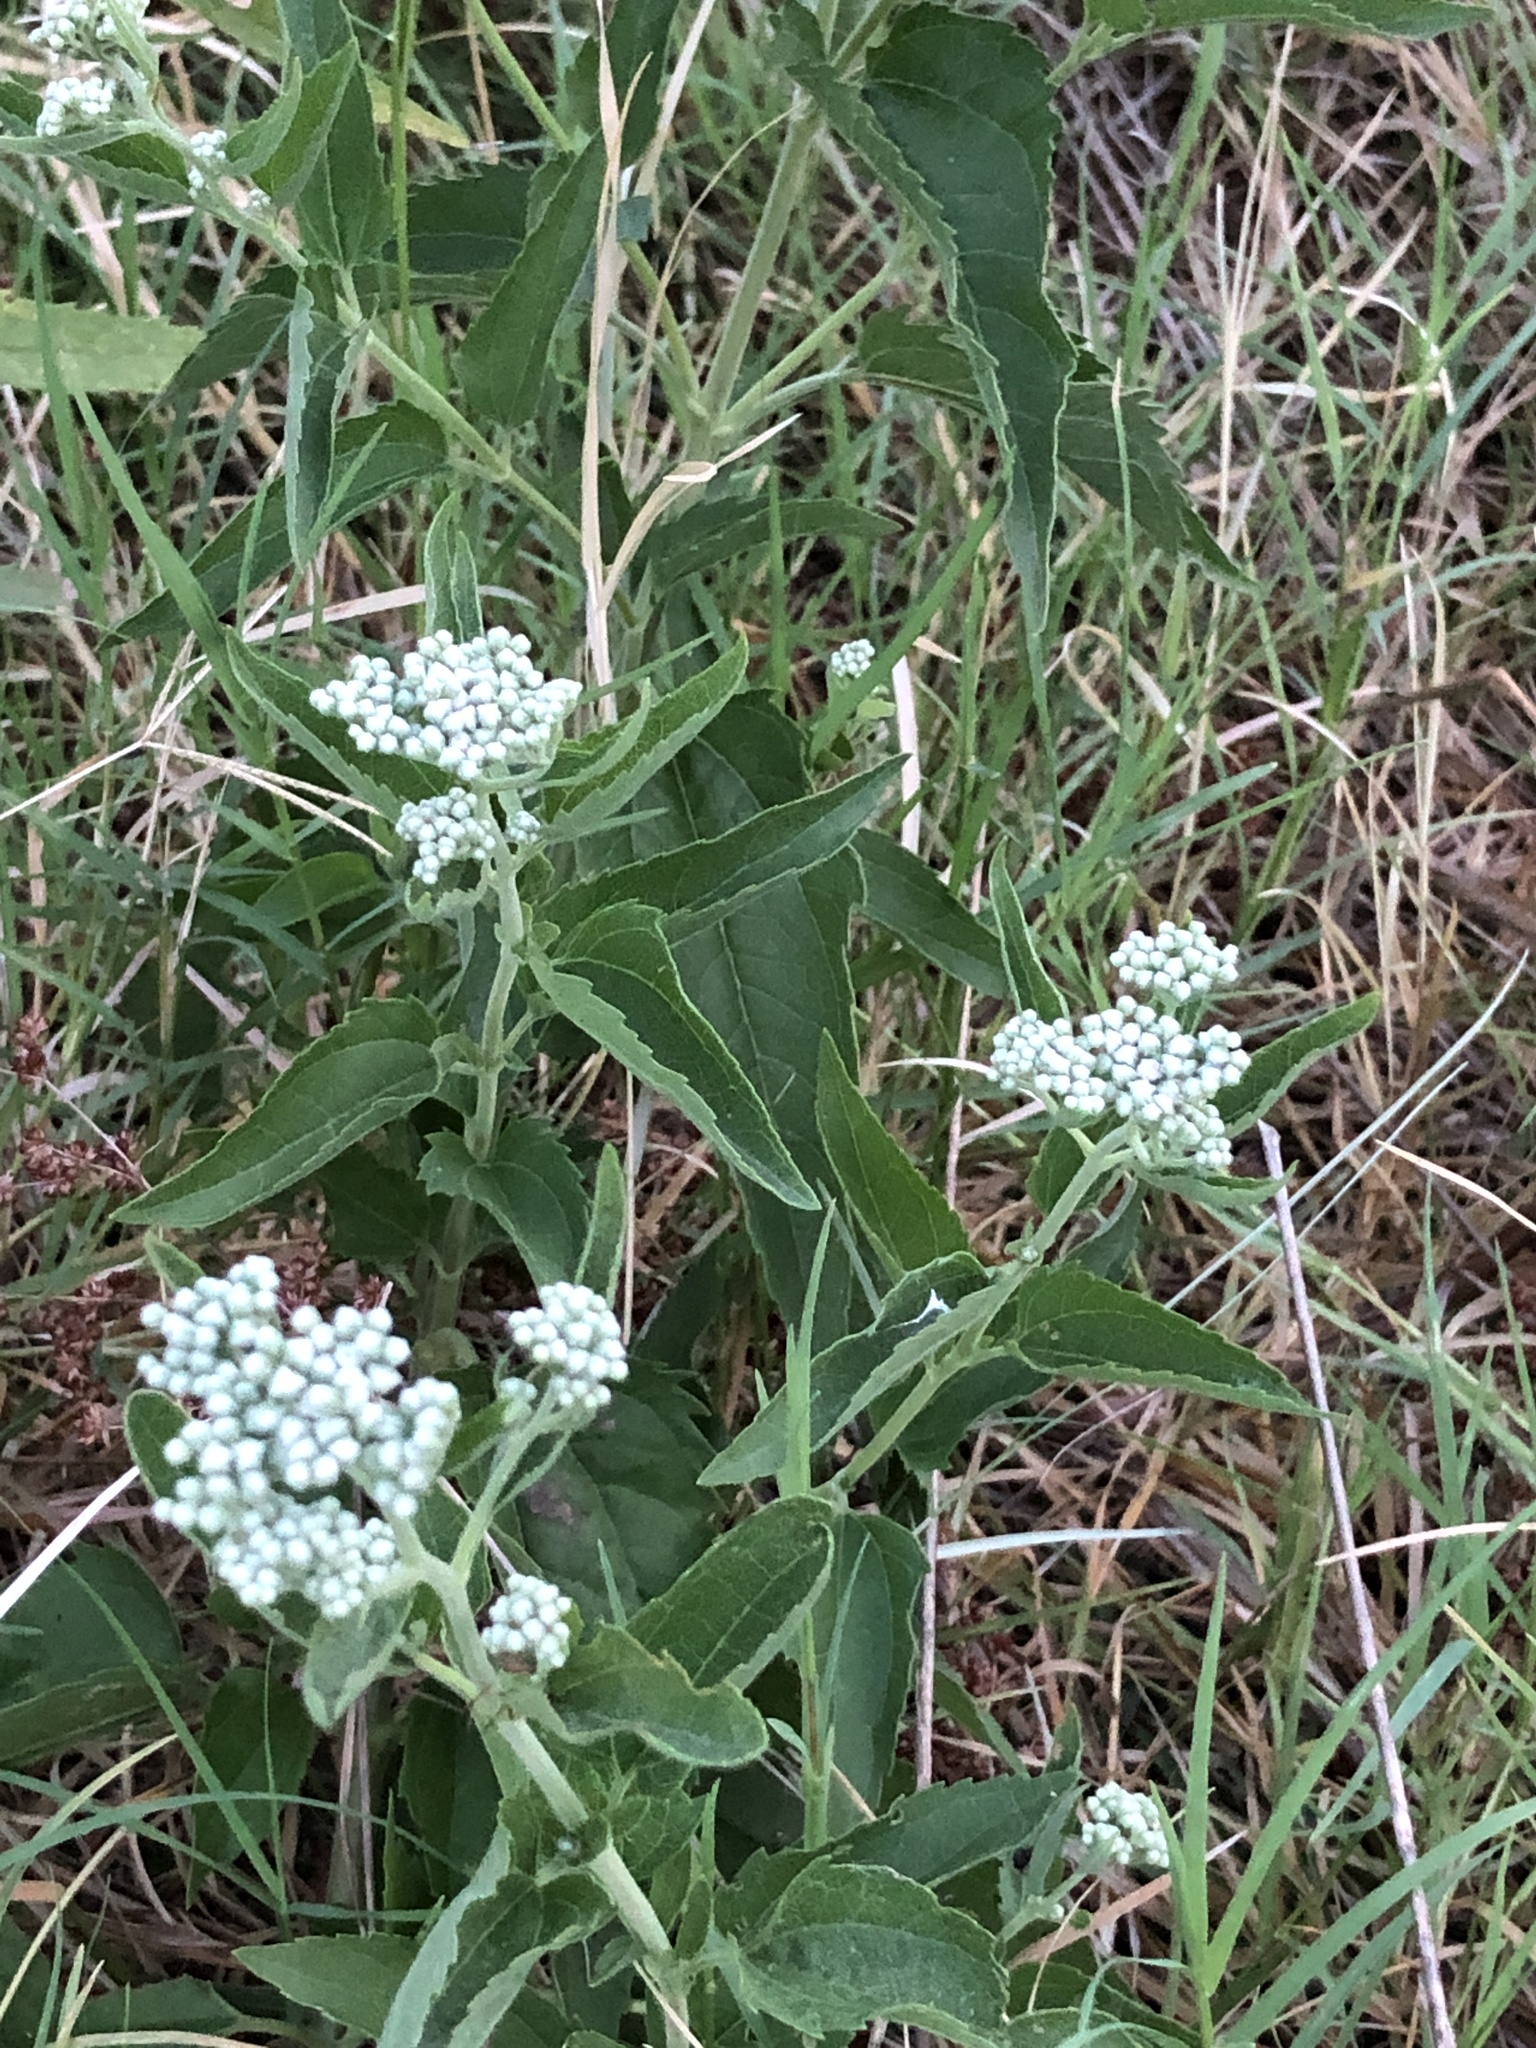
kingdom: Plantae
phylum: Tracheophyta
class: Magnoliopsida
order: Asterales
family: Asteraceae
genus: Eupatorium
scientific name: Eupatorium serotinum
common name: Late boneset
